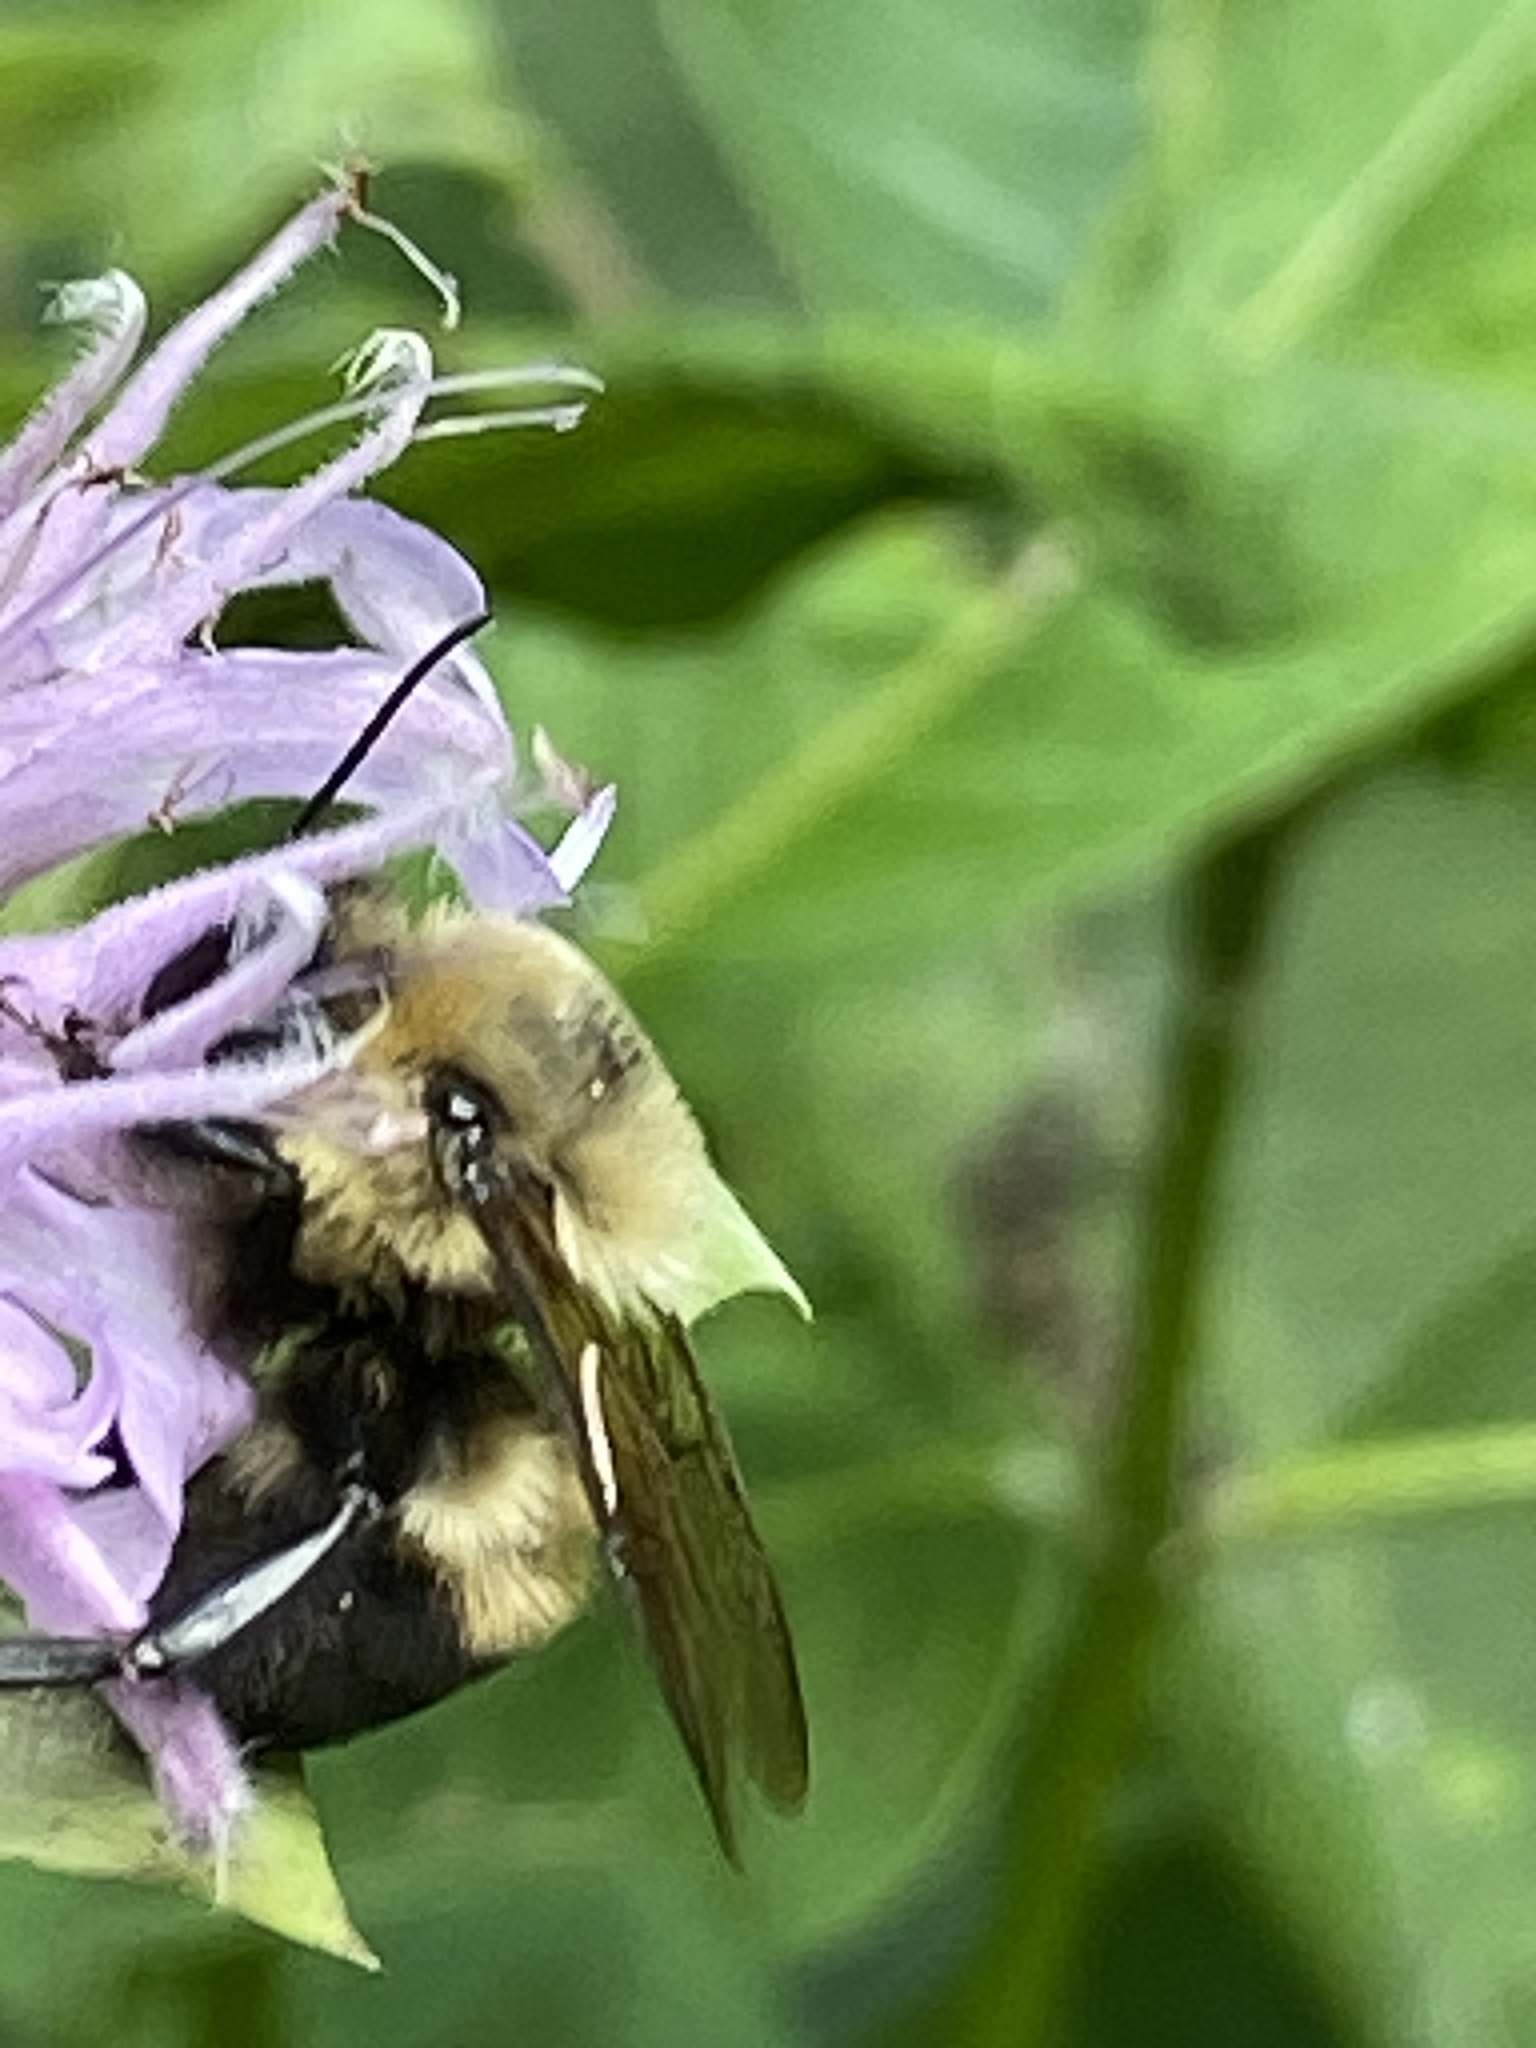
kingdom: Animalia
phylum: Arthropoda
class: Insecta
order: Hymenoptera
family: Apidae
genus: Bombus
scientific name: Bombus griseocollis
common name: Brown-belted bumble bee
